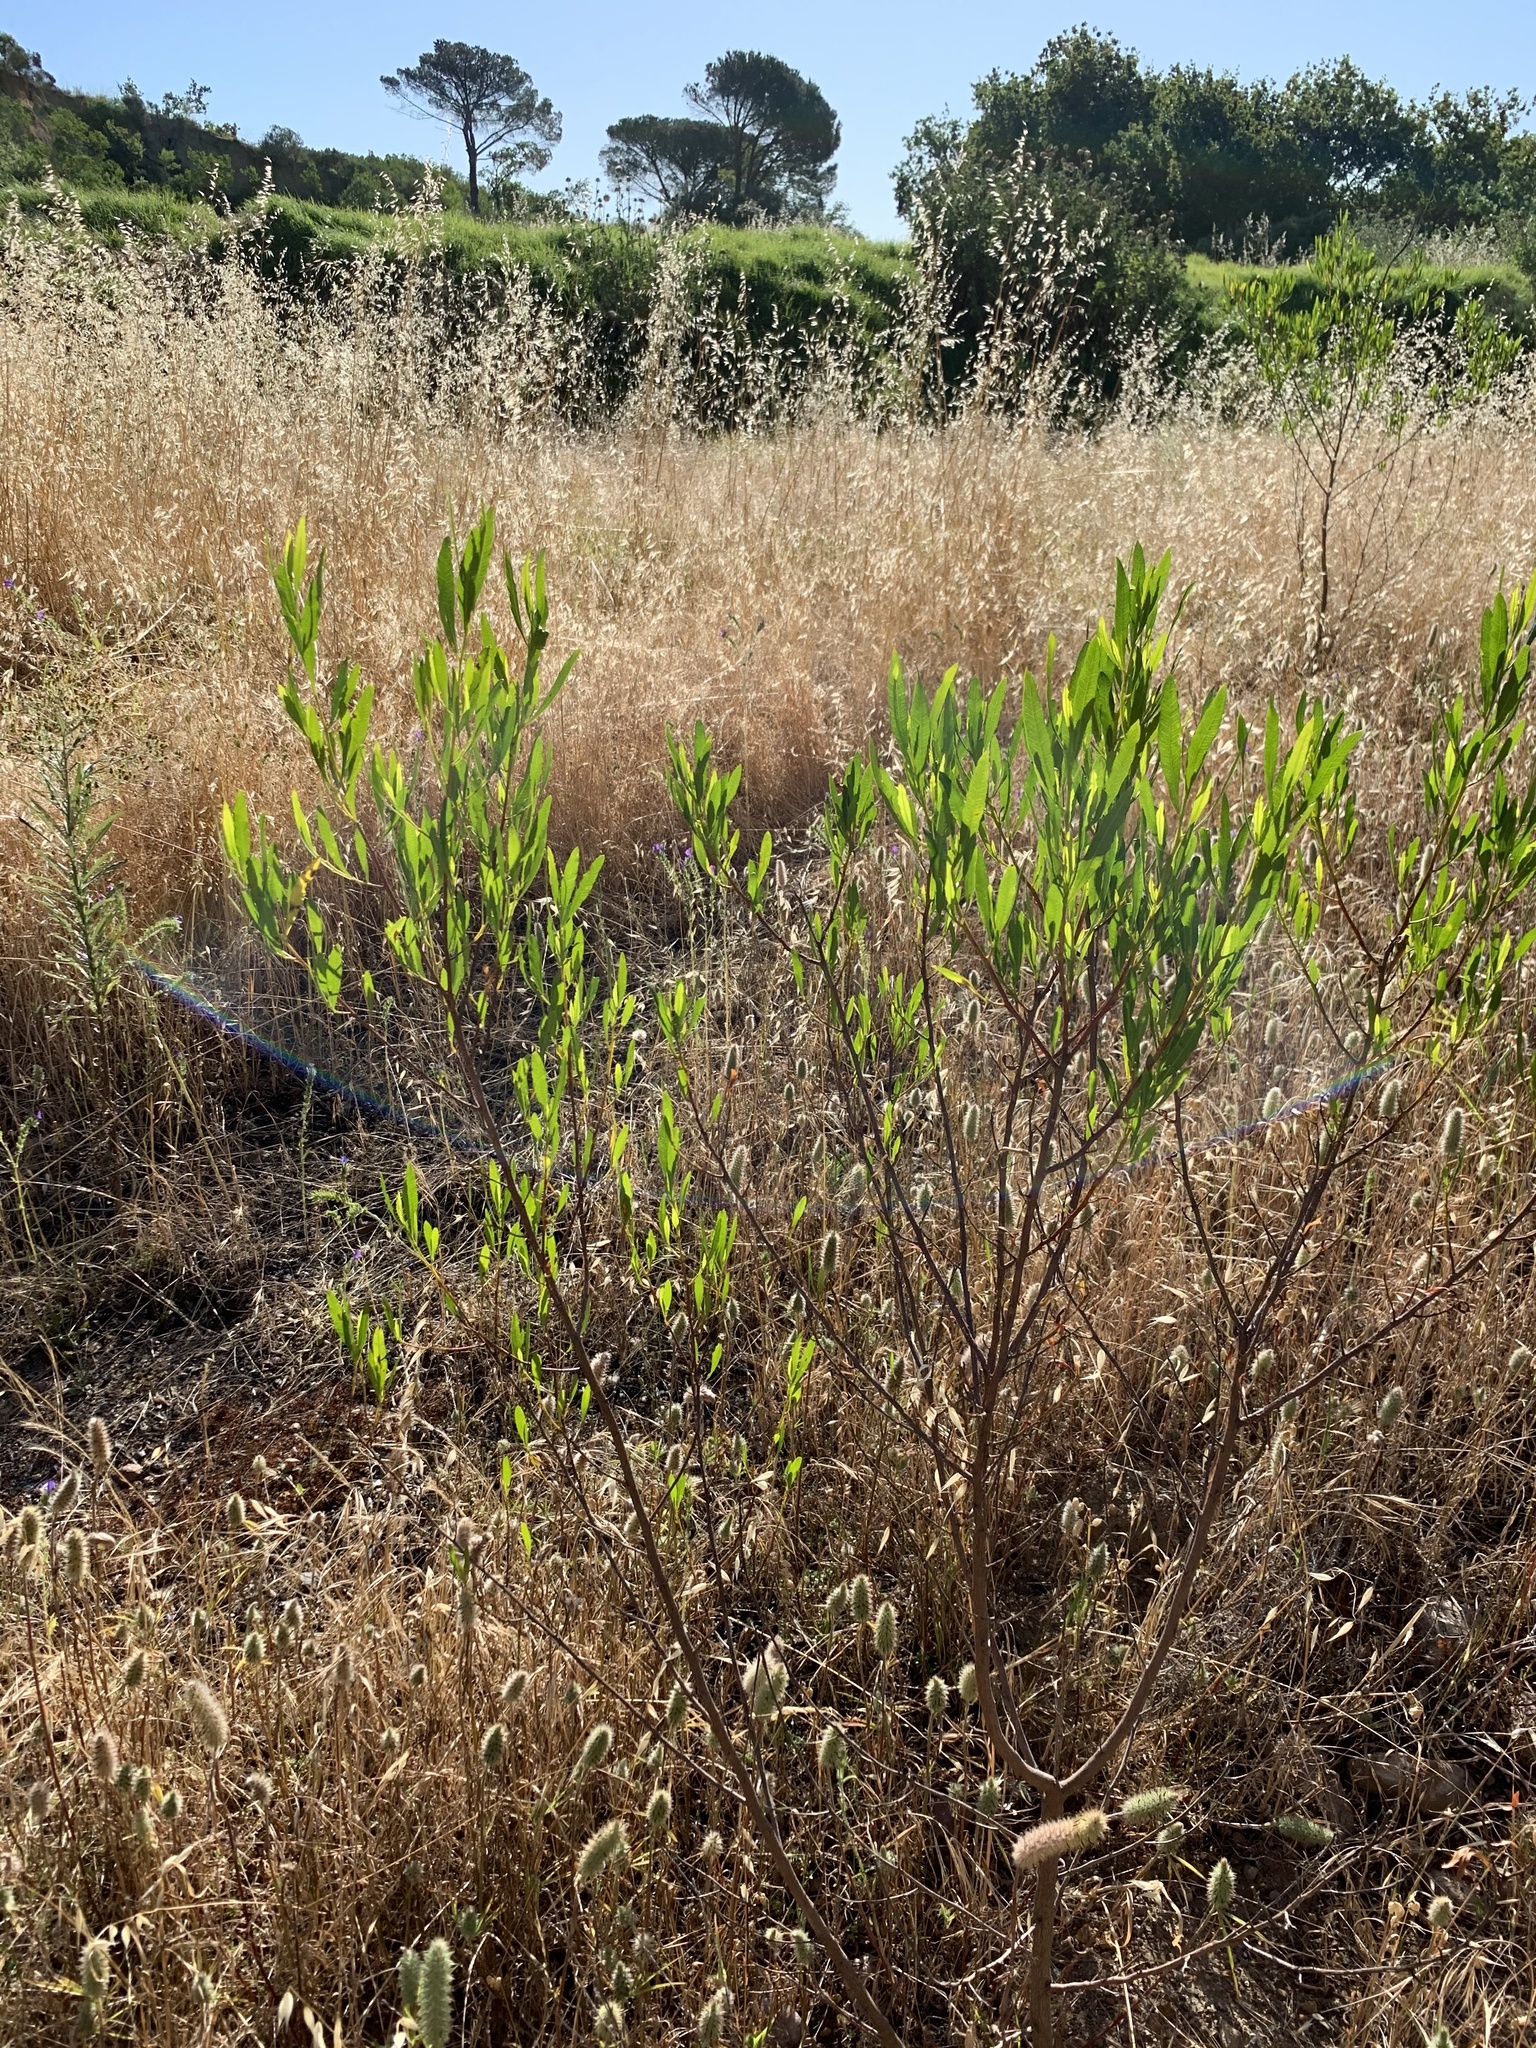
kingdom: Plantae
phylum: Tracheophyta
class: Magnoliopsida
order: Sapindales
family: Sapindaceae
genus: Dodonaea
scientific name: Dodonaea viscosa
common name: Hopbush
